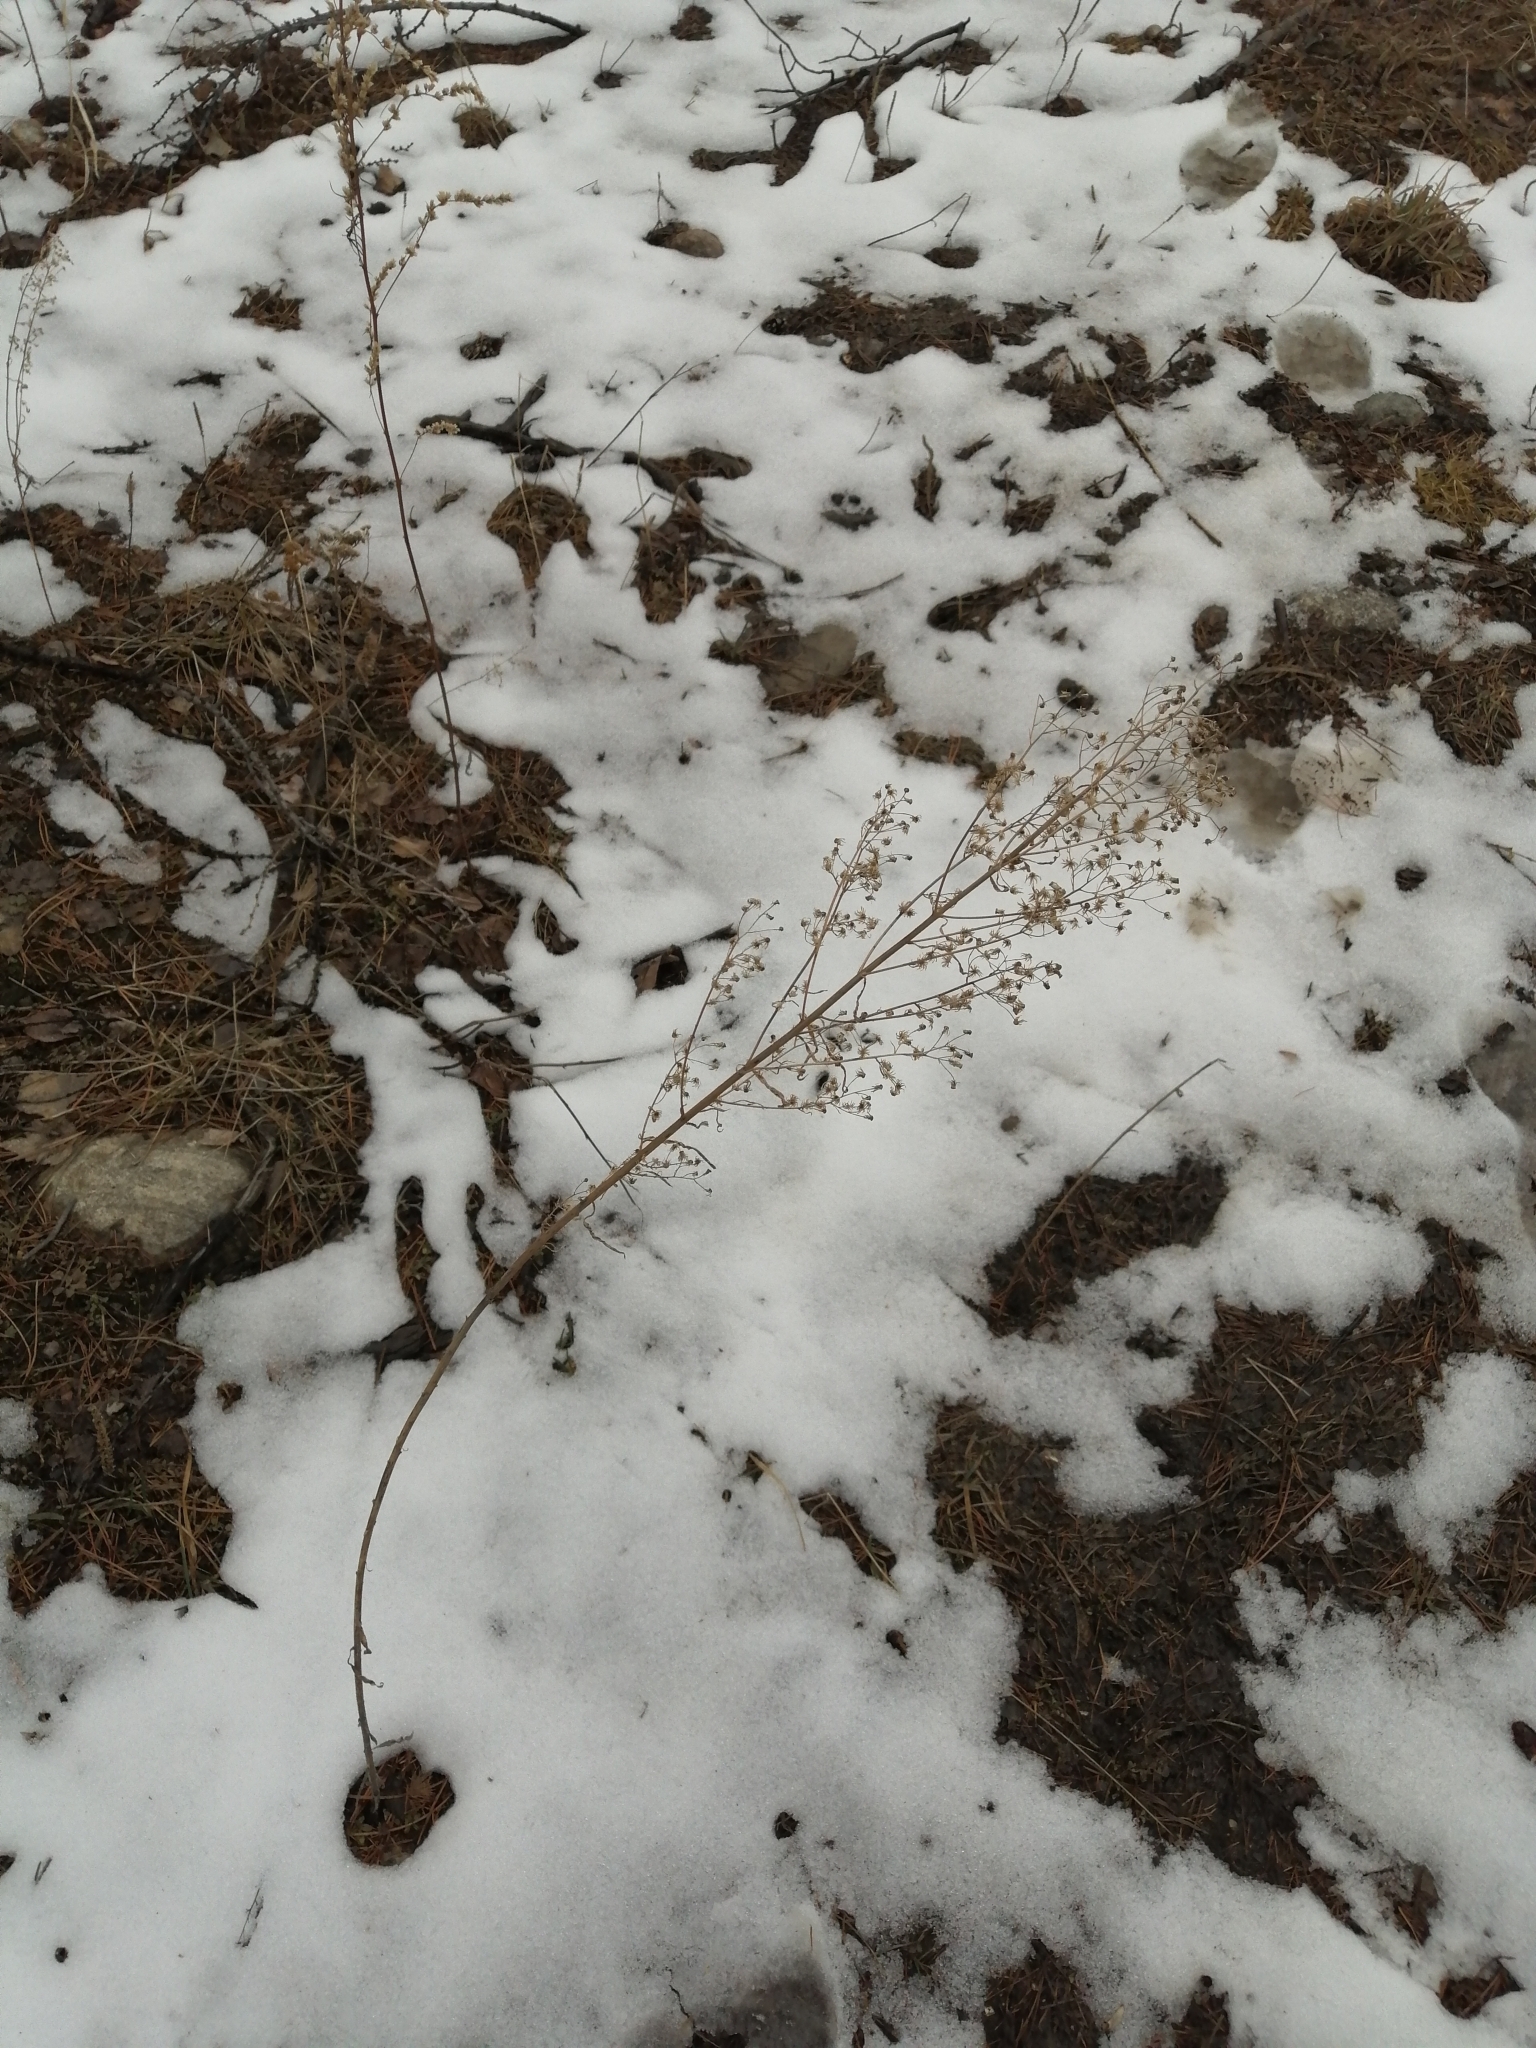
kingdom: Plantae
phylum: Tracheophyta
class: Magnoliopsida
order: Asterales
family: Asteraceae
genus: Erigeron
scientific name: Erigeron canadensis
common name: Canadian fleabane
